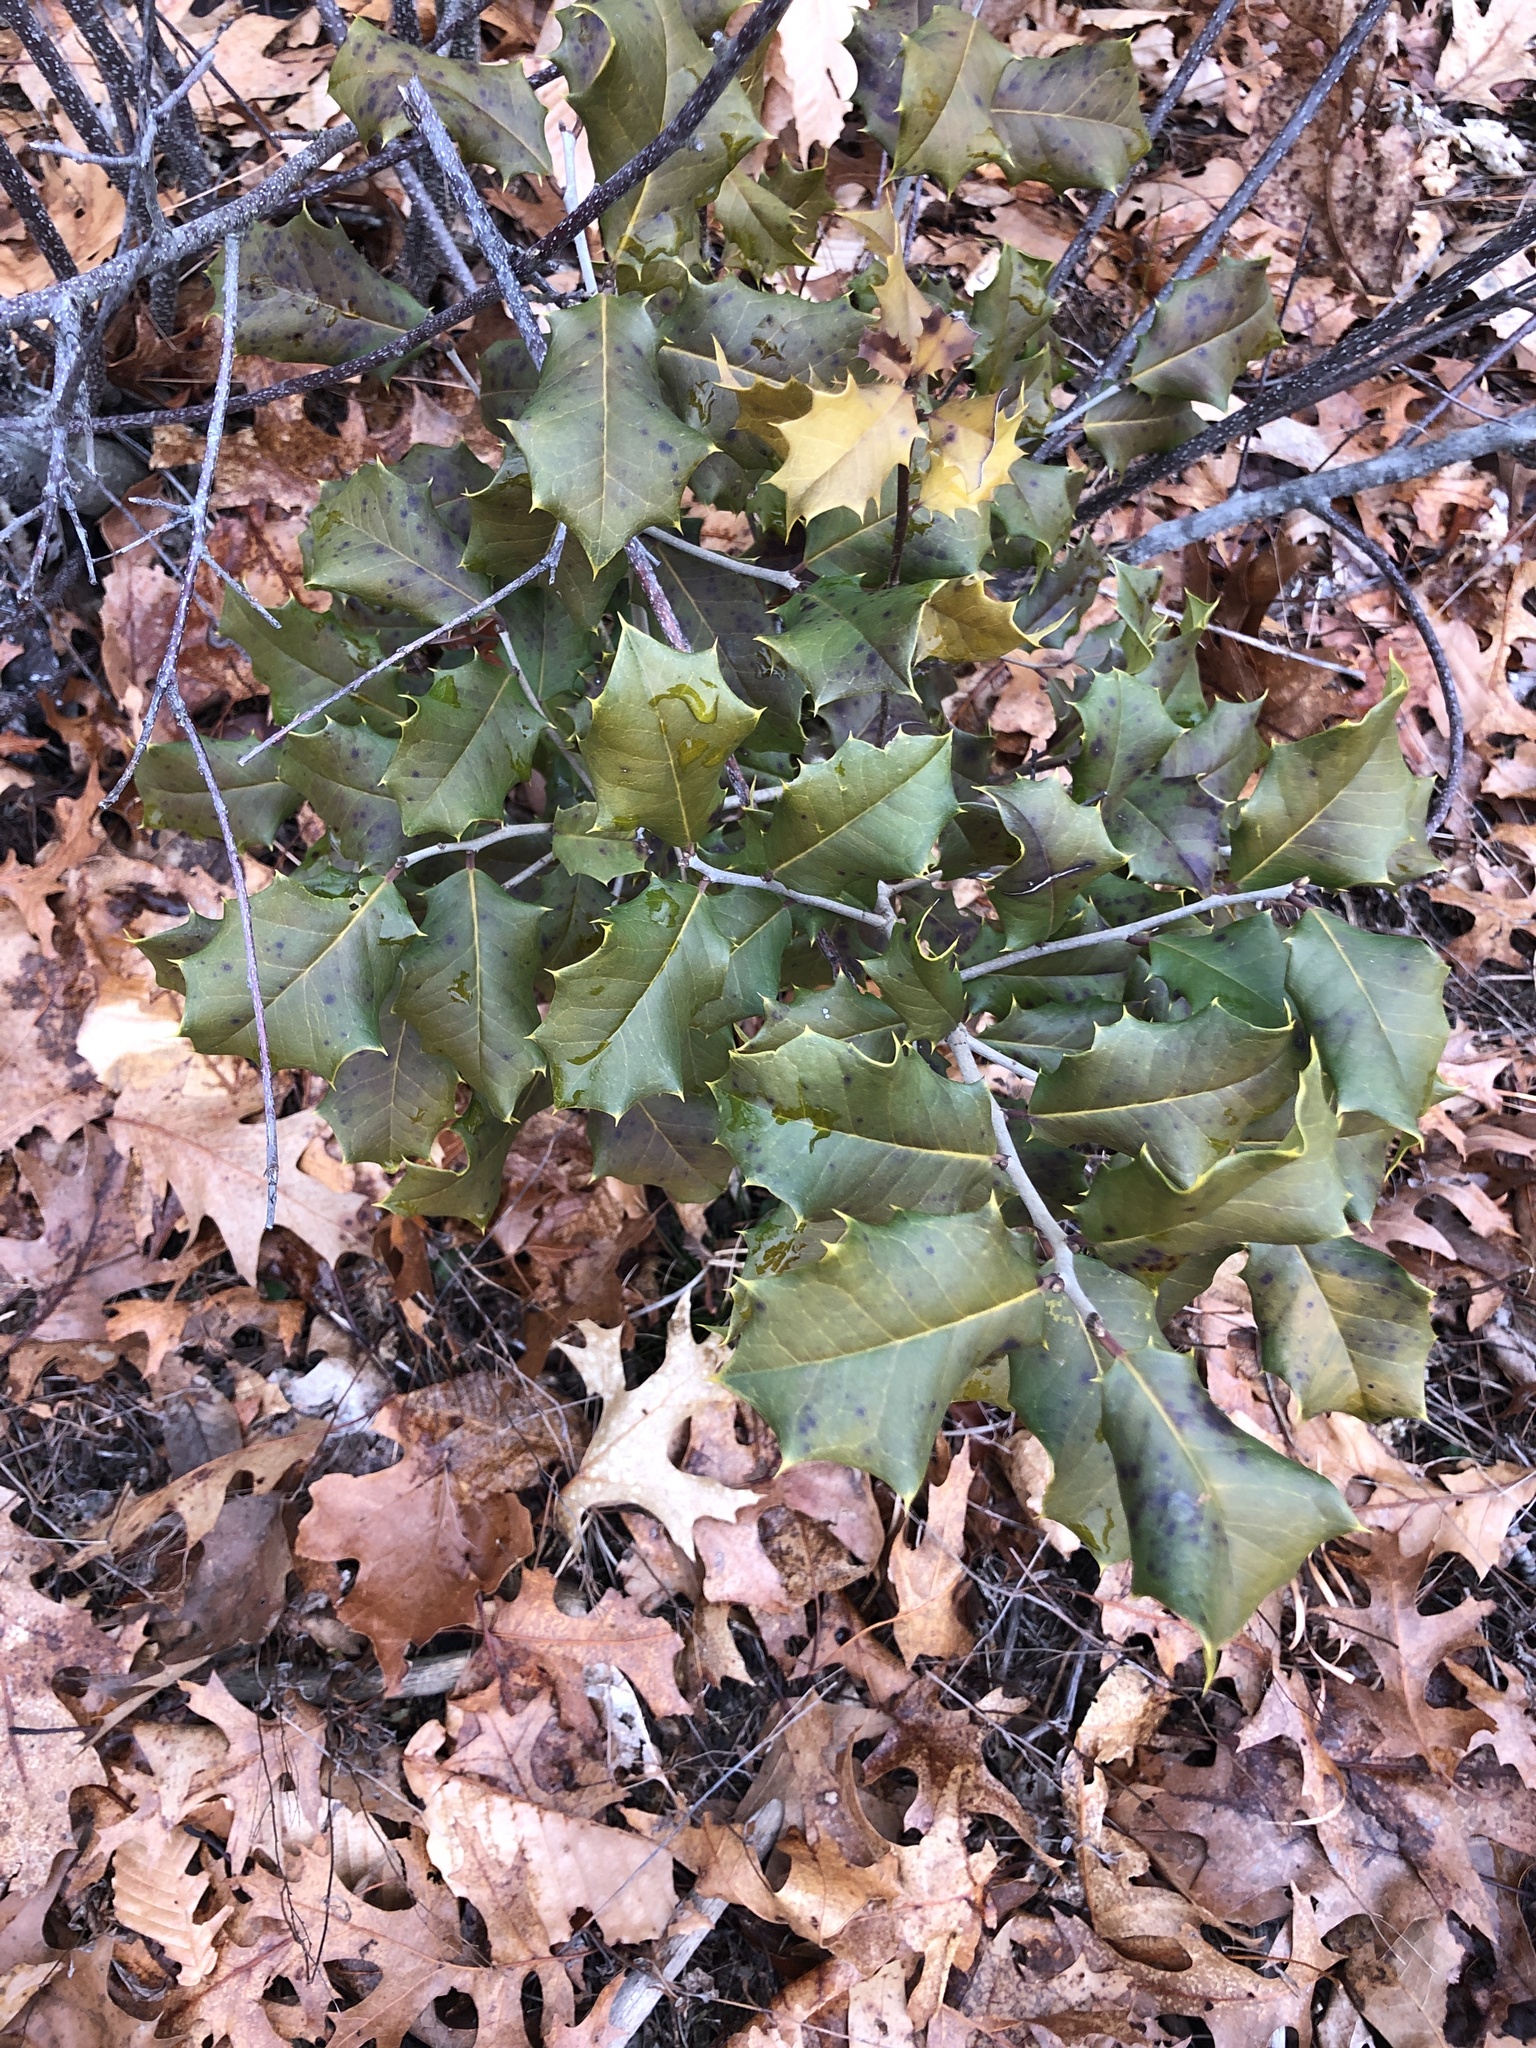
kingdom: Plantae
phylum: Tracheophyta
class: Magnoliopsida
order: Aquifoliales
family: Aquifoliaceae
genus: Ilex
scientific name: Ilex opaca
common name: American holly
